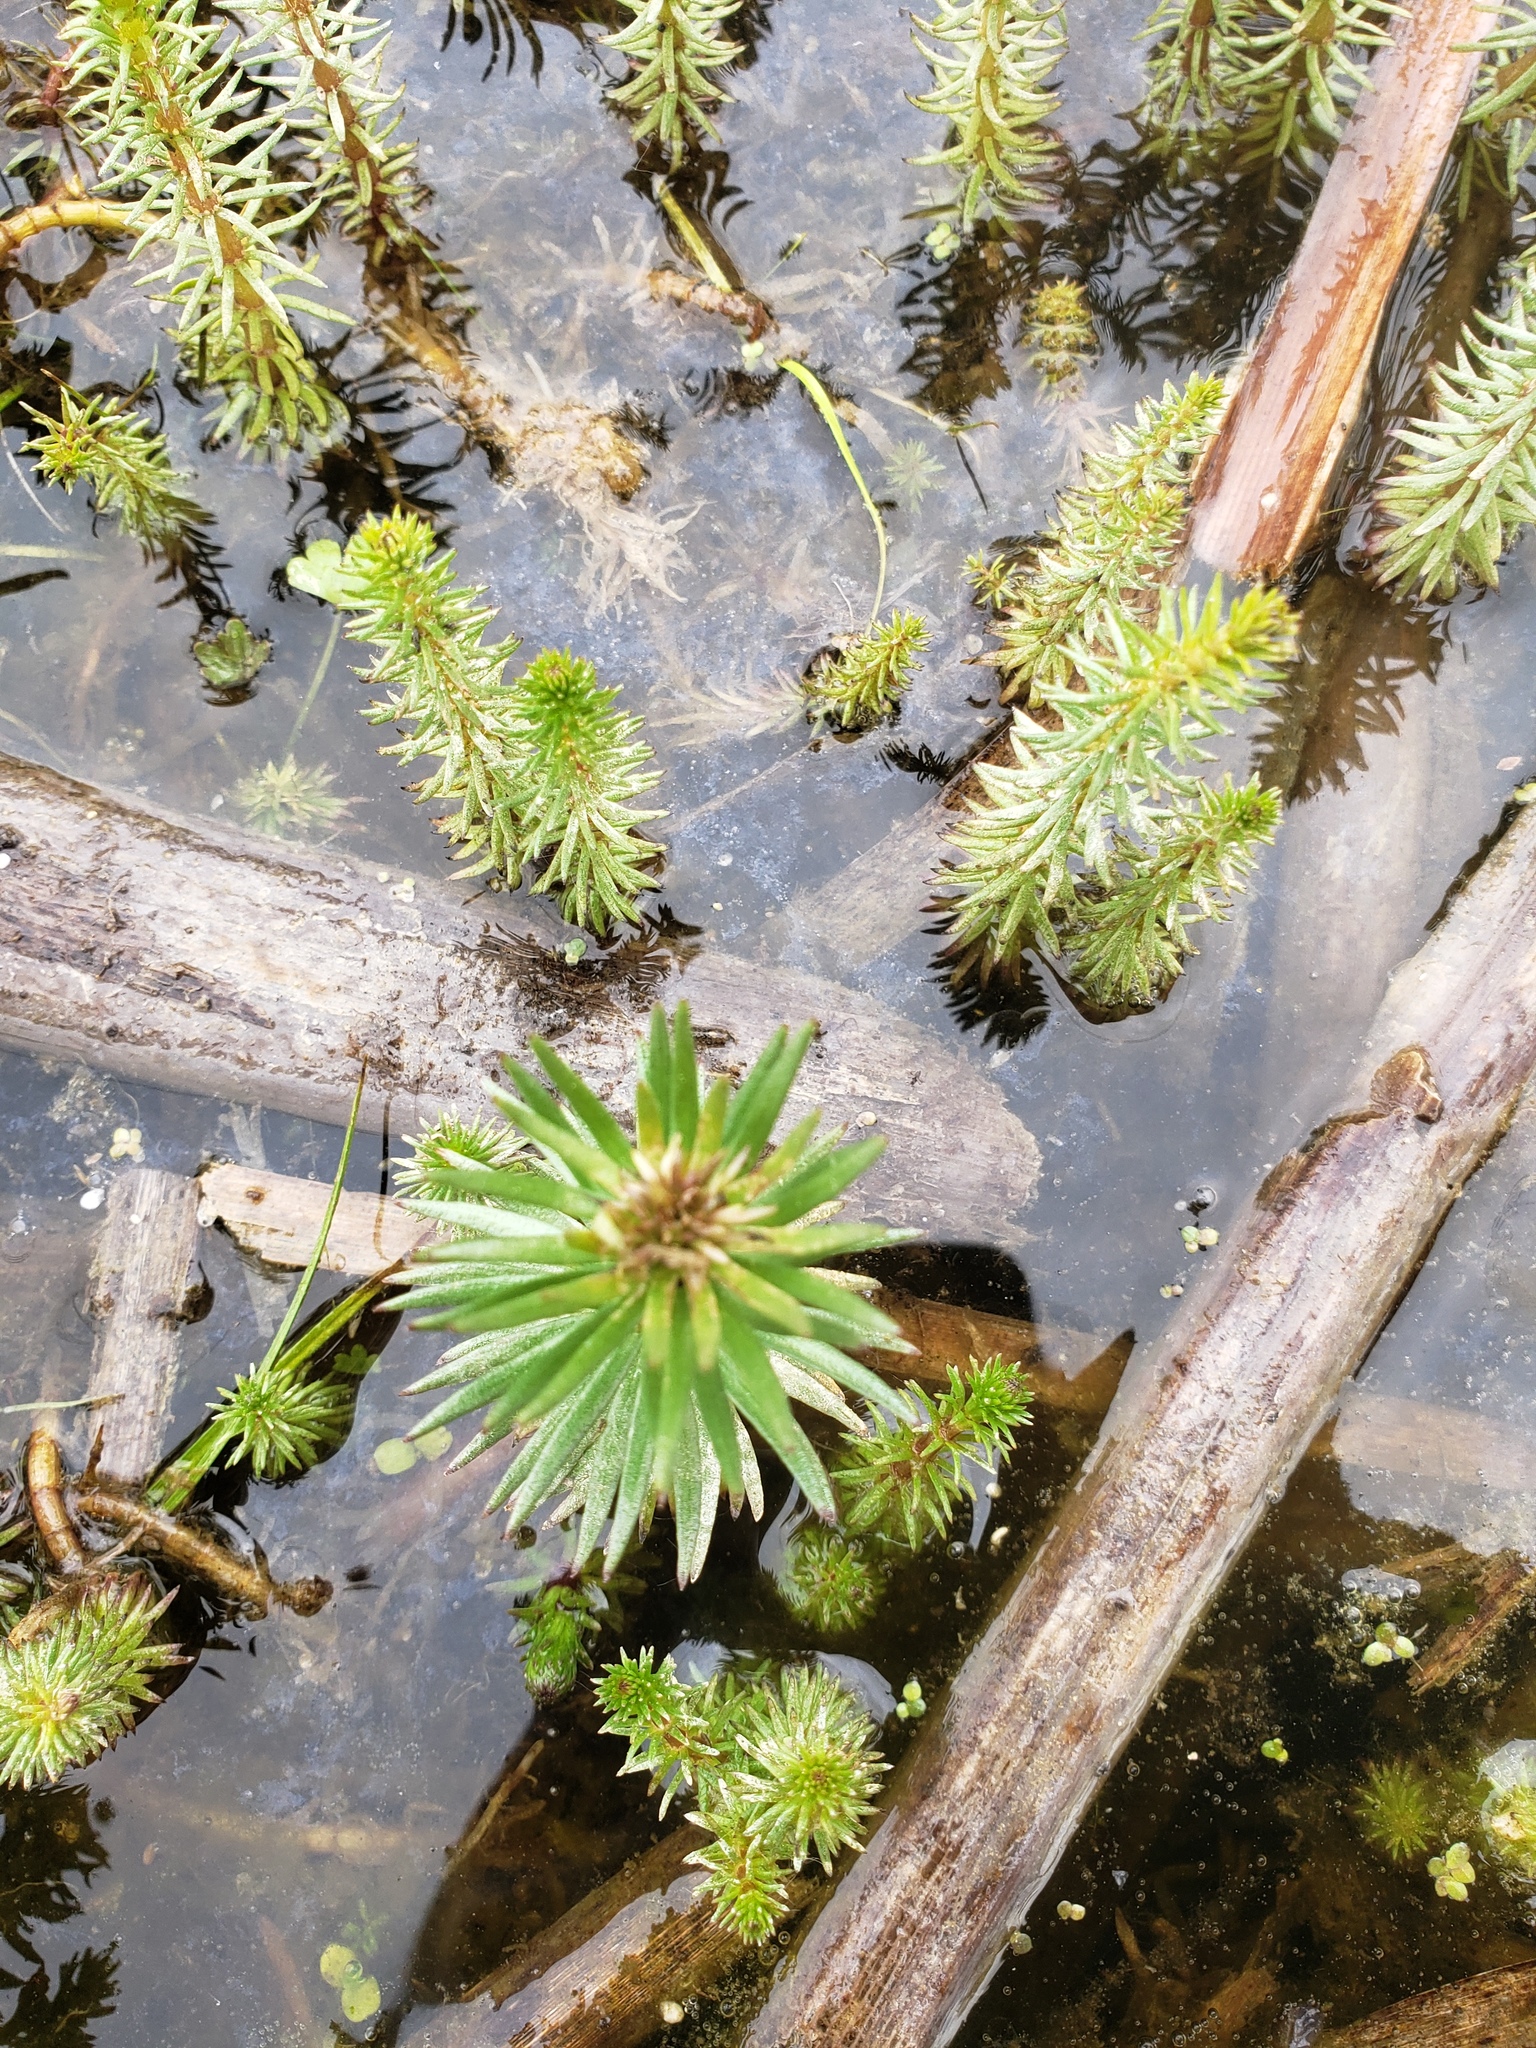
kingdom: Plantae
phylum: Tracheophyta
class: Magnoliopsida
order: Lamiales
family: Plantaginaceae
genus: Hippuris
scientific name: Hippuris vulgaris
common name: Mare's-tail
